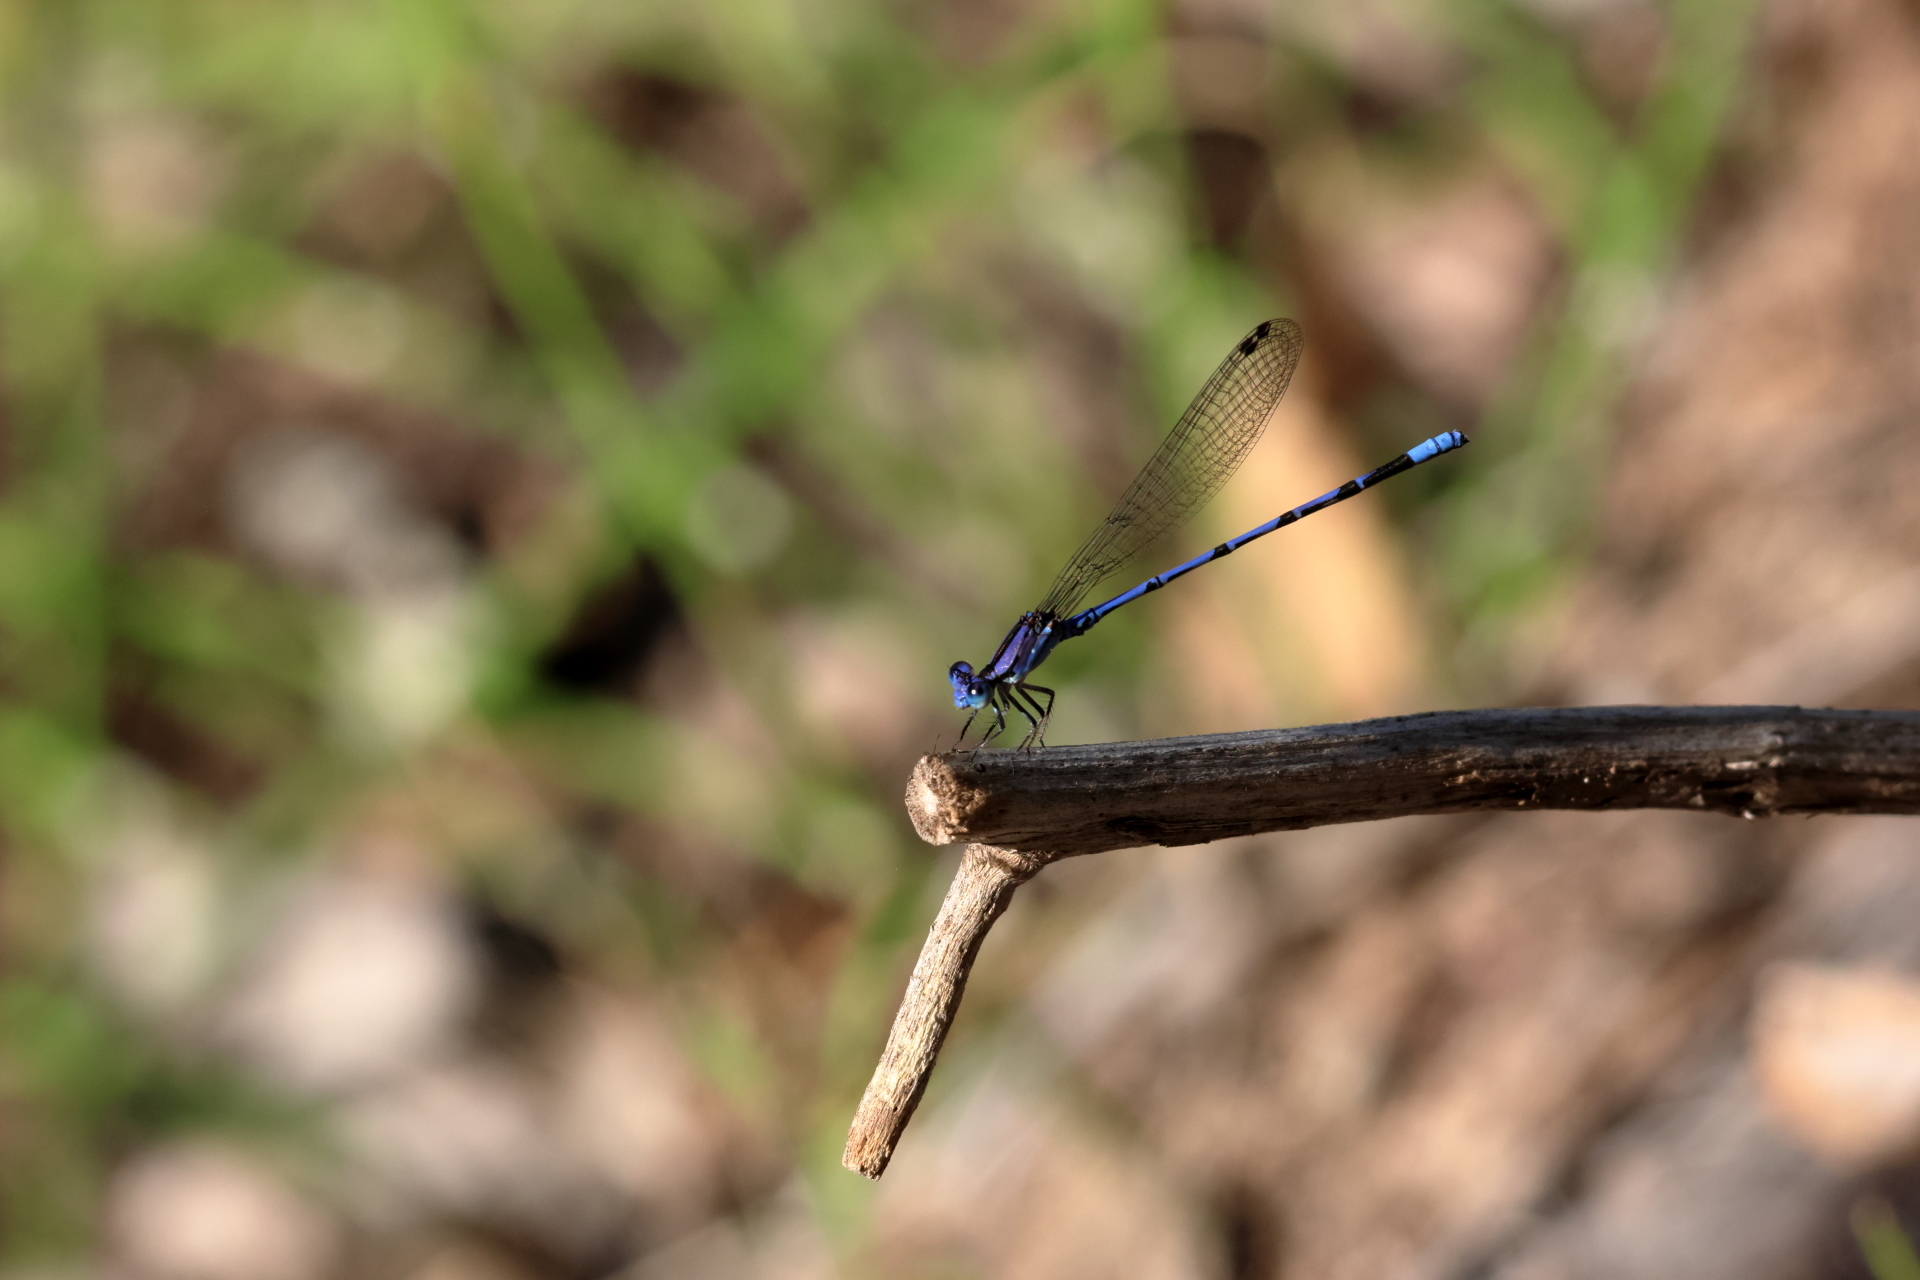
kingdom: Animalia
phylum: Arthropoda
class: Insecta
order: Odonata
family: Coenagrionidae
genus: Argia
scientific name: Argia extranea
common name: Spine-tipped dancer
